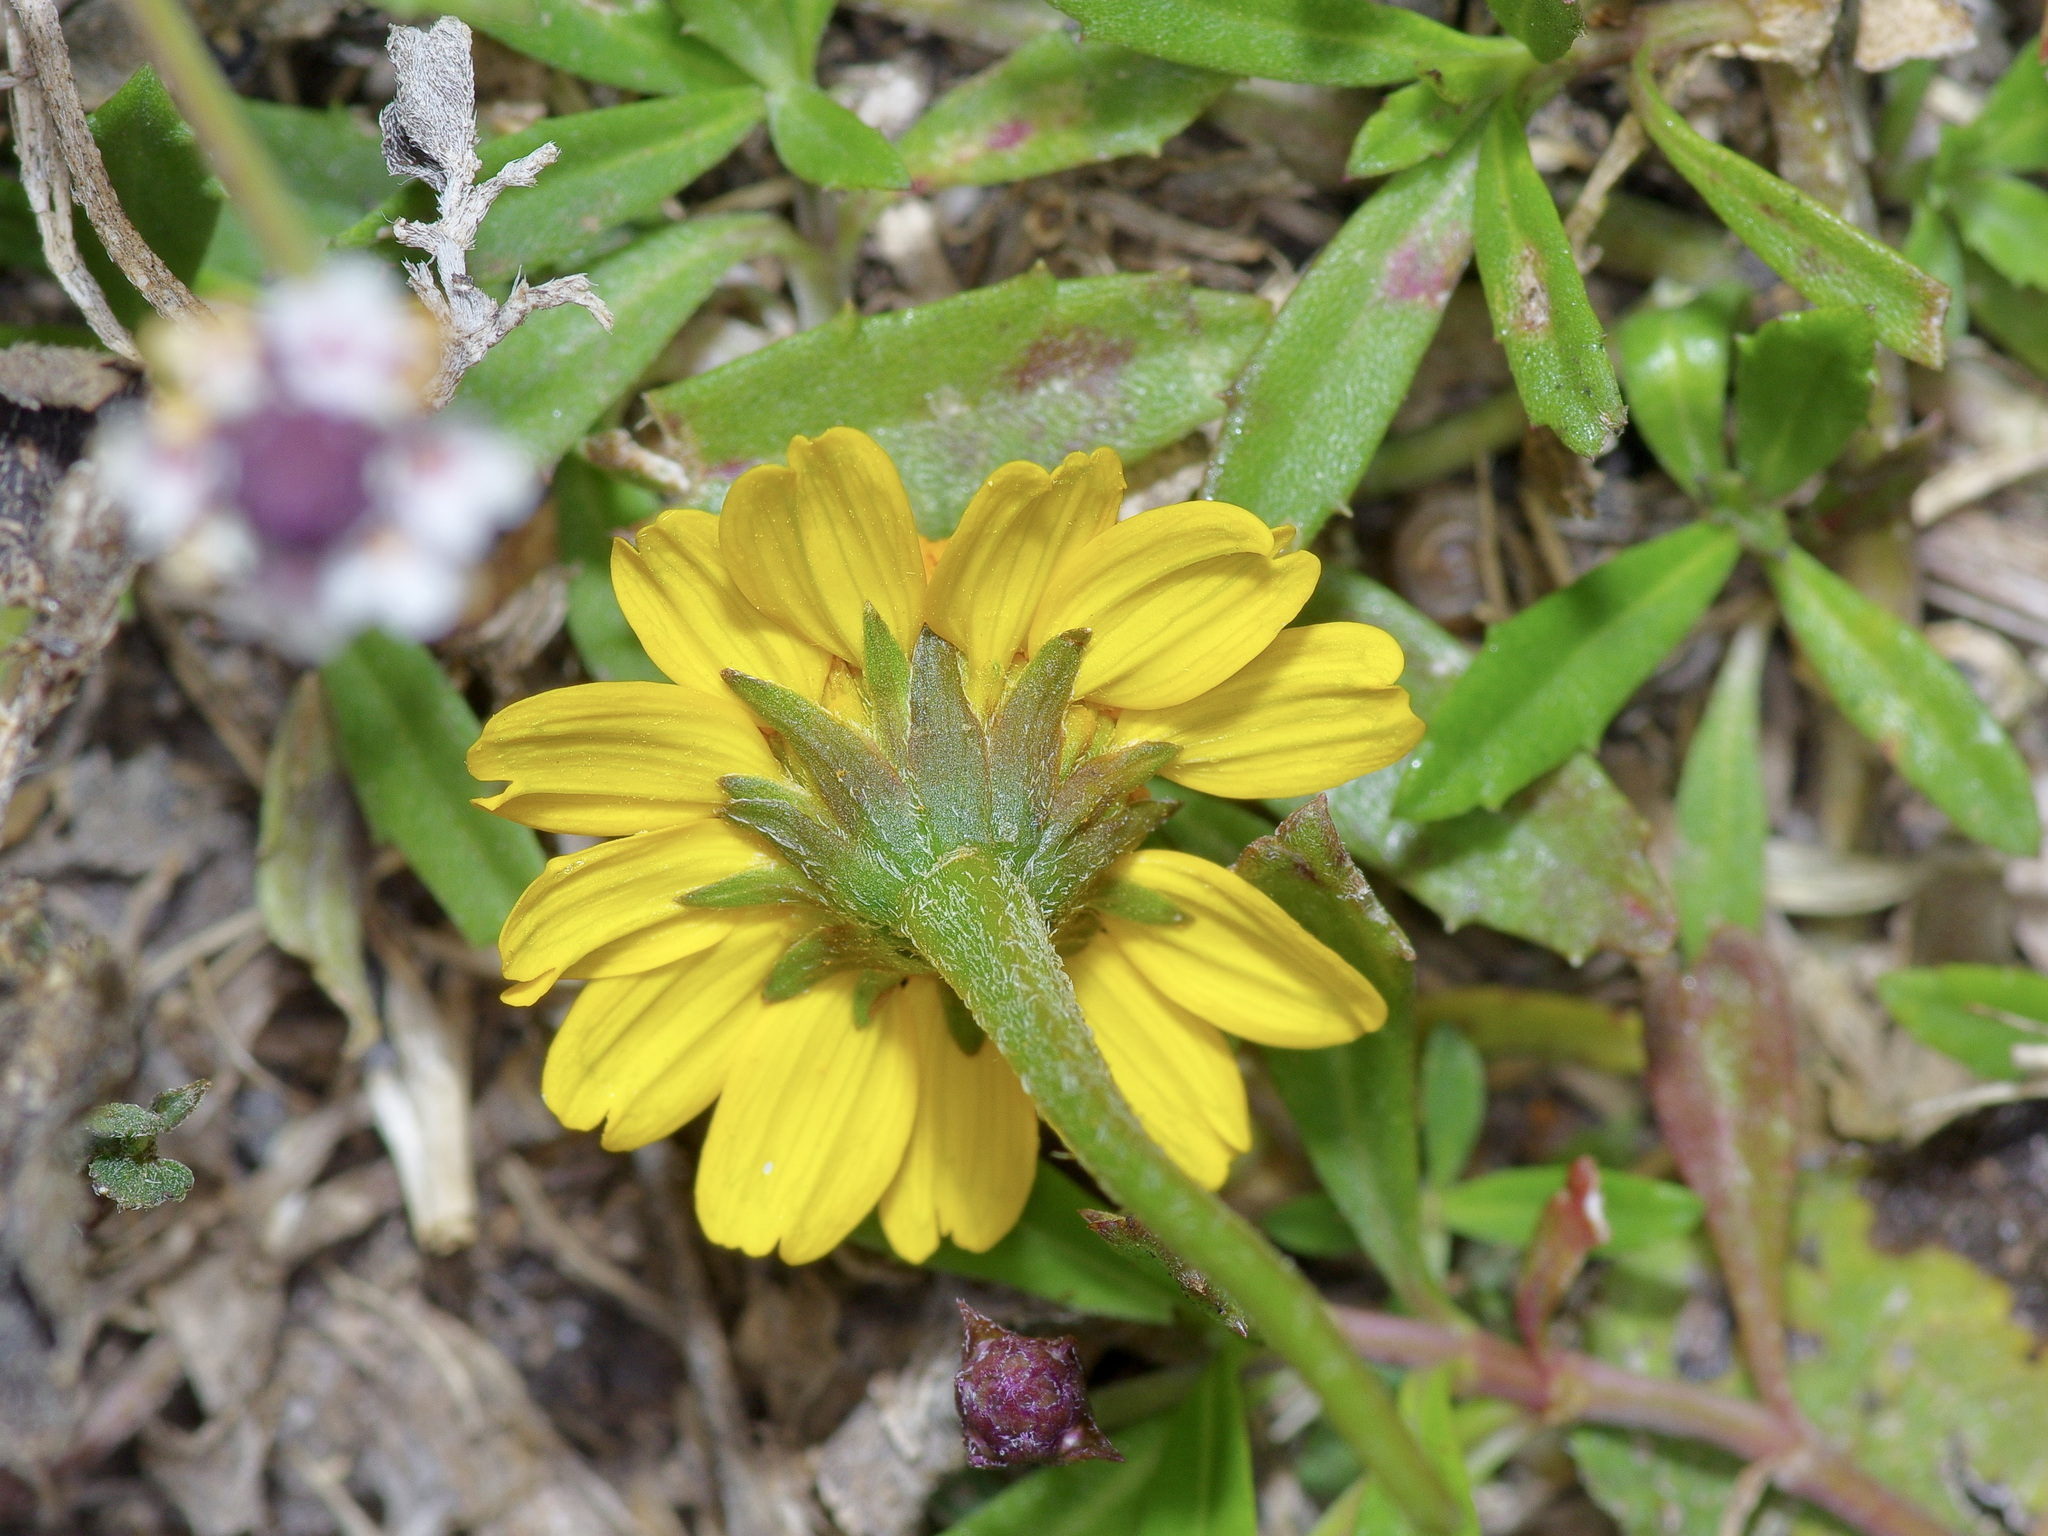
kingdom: Plantae
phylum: Tracheophyta
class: Magnoliopsida
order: Asterales
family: Asteraceae
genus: Acmella
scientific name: Acmella repens
